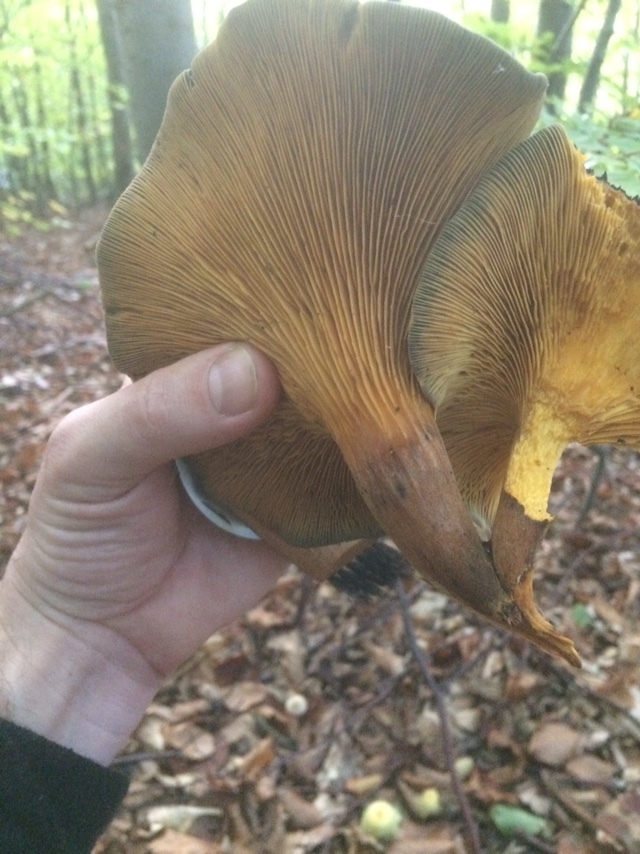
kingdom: Fungi
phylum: Basidiomycota
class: Agaricomycetes
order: Agaricales
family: Omphalotaceae
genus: Omphalotus
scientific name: Omphalotus olearius
